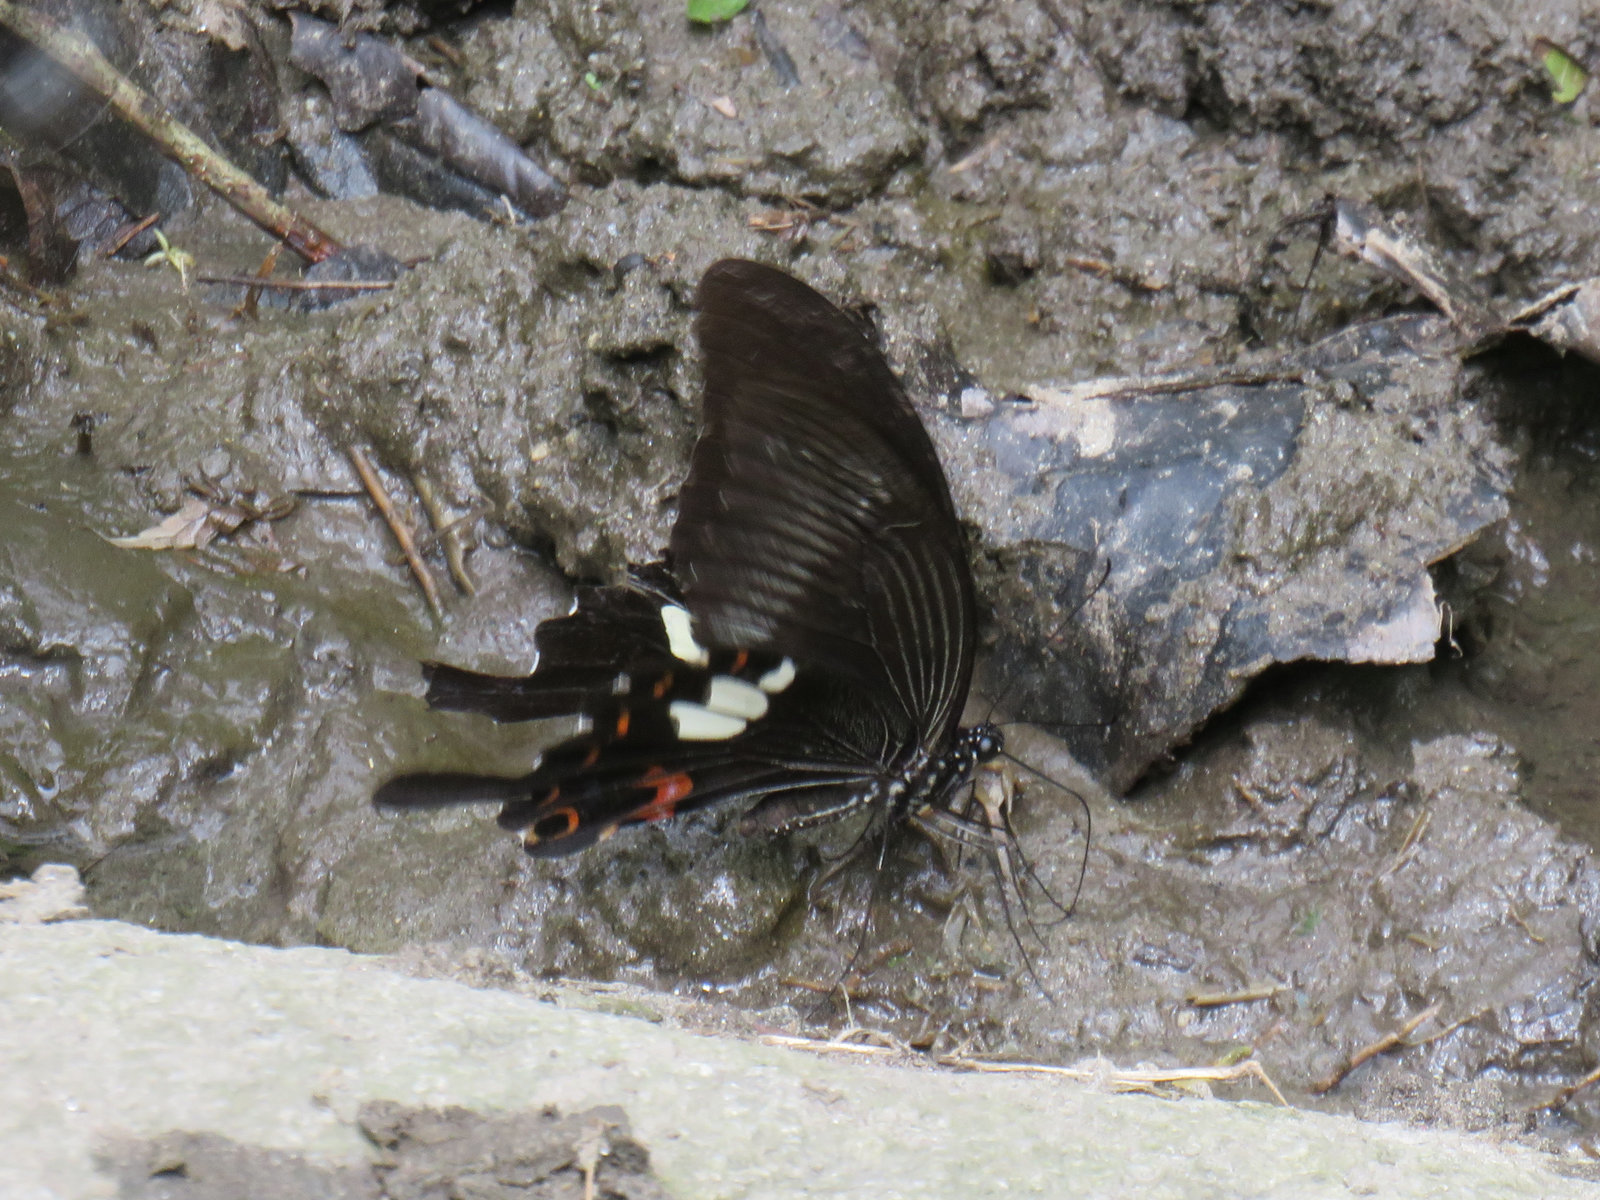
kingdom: Animalia
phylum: Arthropoda
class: Insecta
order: Lepidoptera
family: Papilionidae
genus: Papilio
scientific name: Papilio helenus
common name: Red helen
